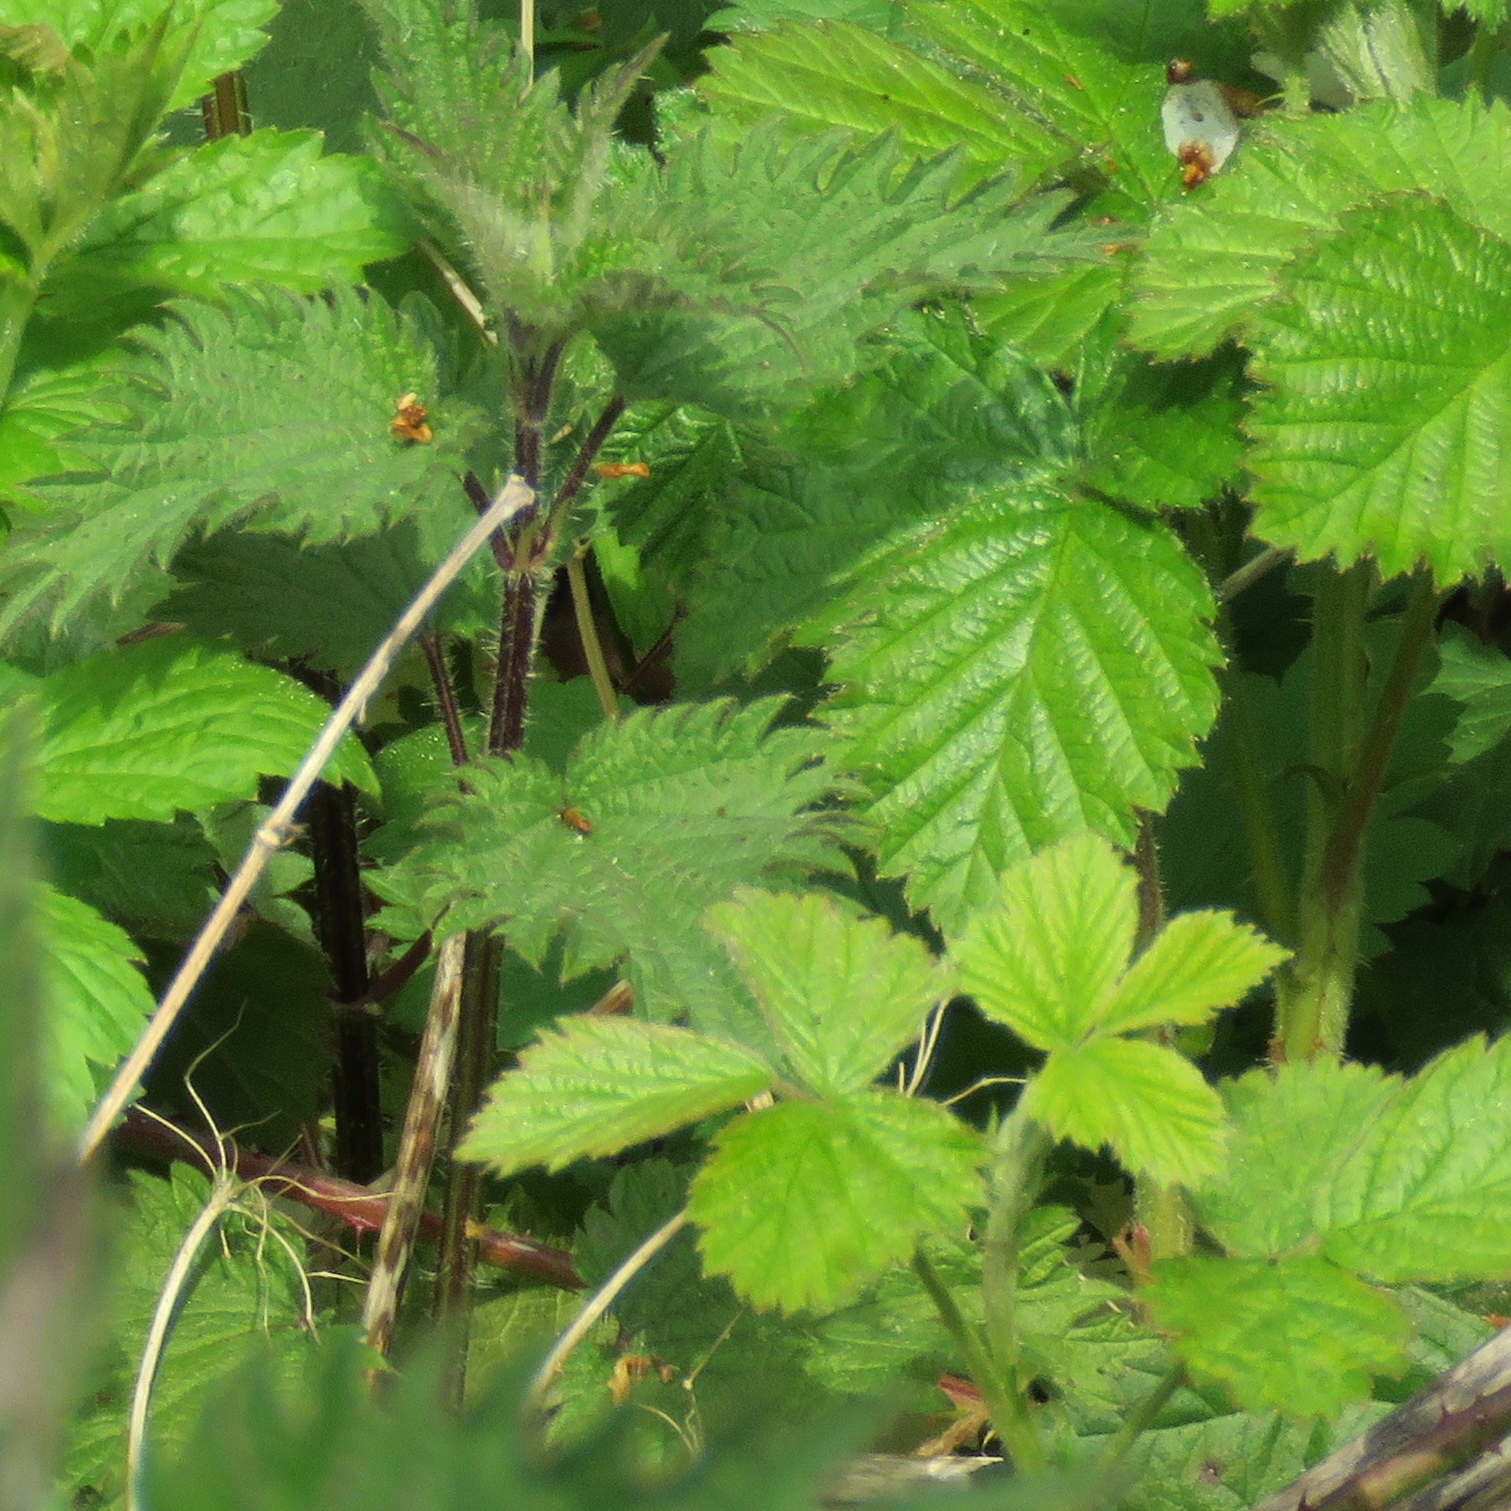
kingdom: Plantae
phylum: Tracheophyta
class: Magnoliopsida
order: Rosales
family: Rosaceae
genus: Rubus
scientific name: Rubus fruticosus
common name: Blackberry, bramble
